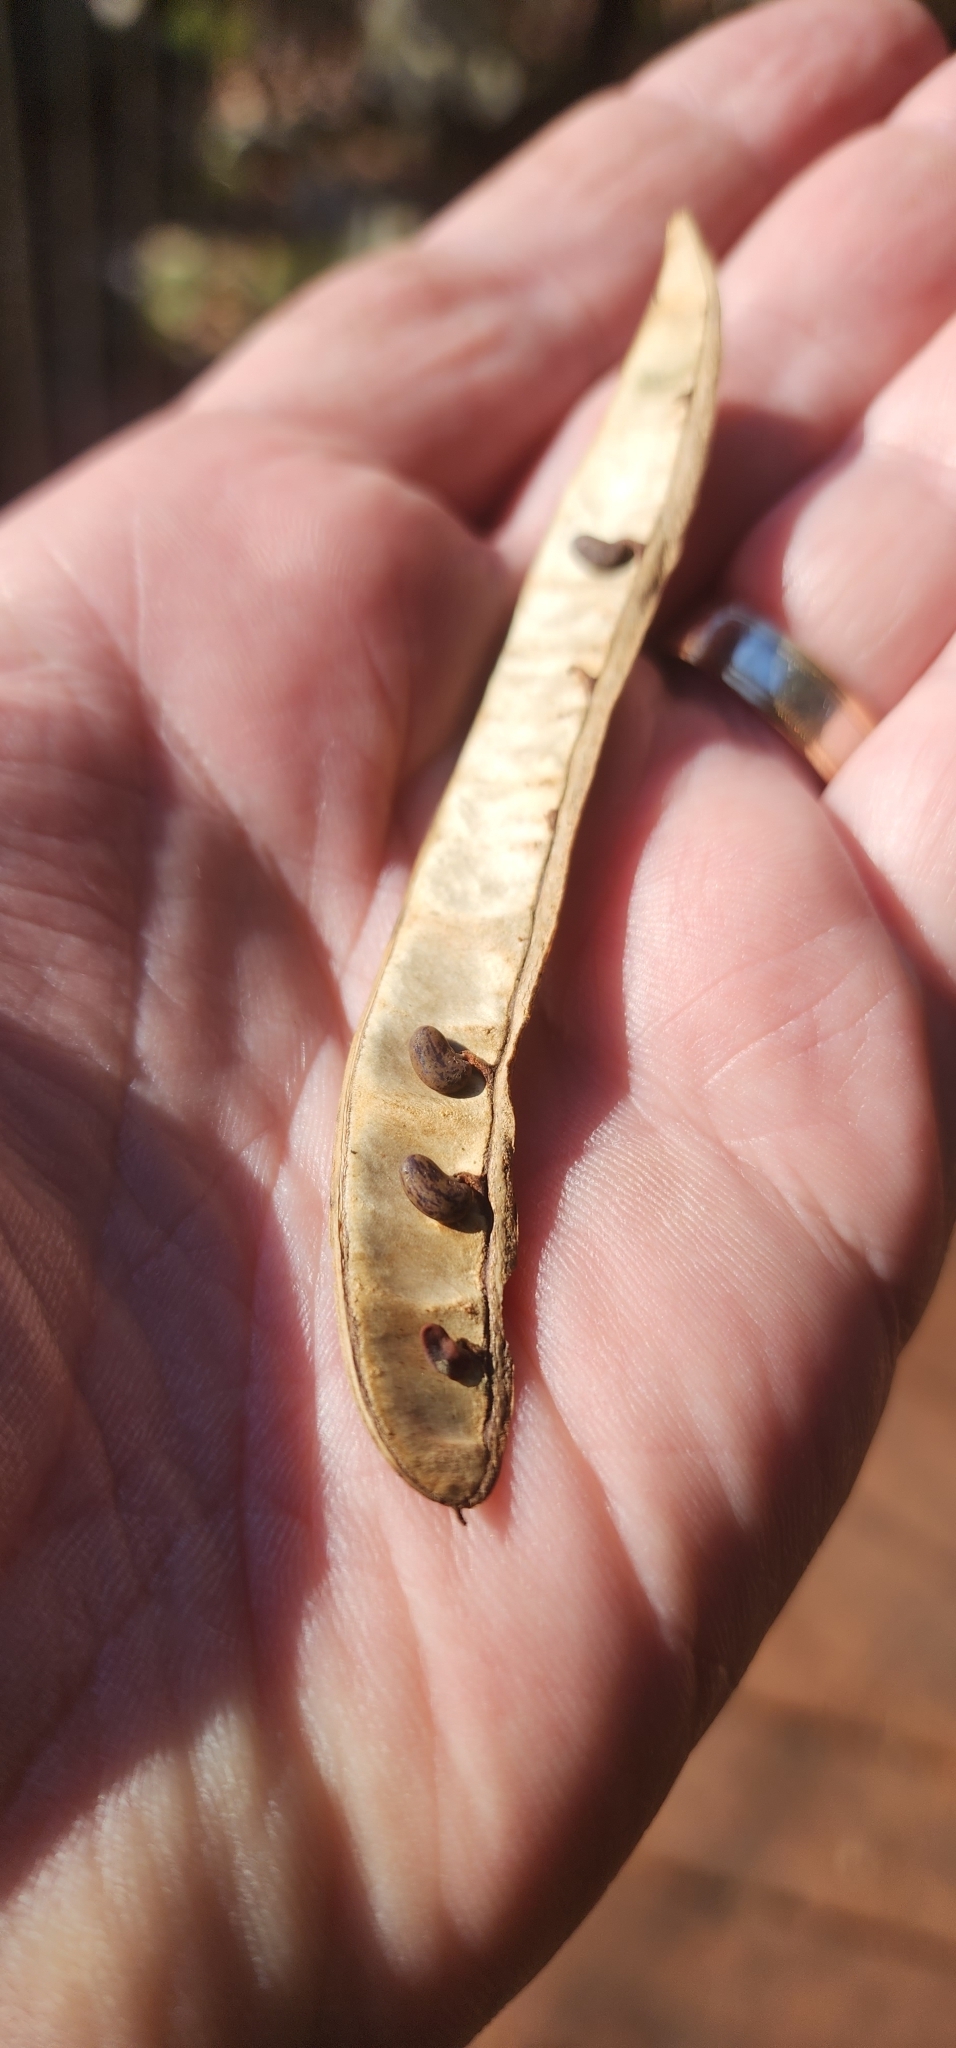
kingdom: Plantae
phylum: Tracheophyta
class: Magnoliopsida
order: Fabales
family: Fabaceae
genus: Robinia
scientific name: Robinia pseudoacacia
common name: Black locust
